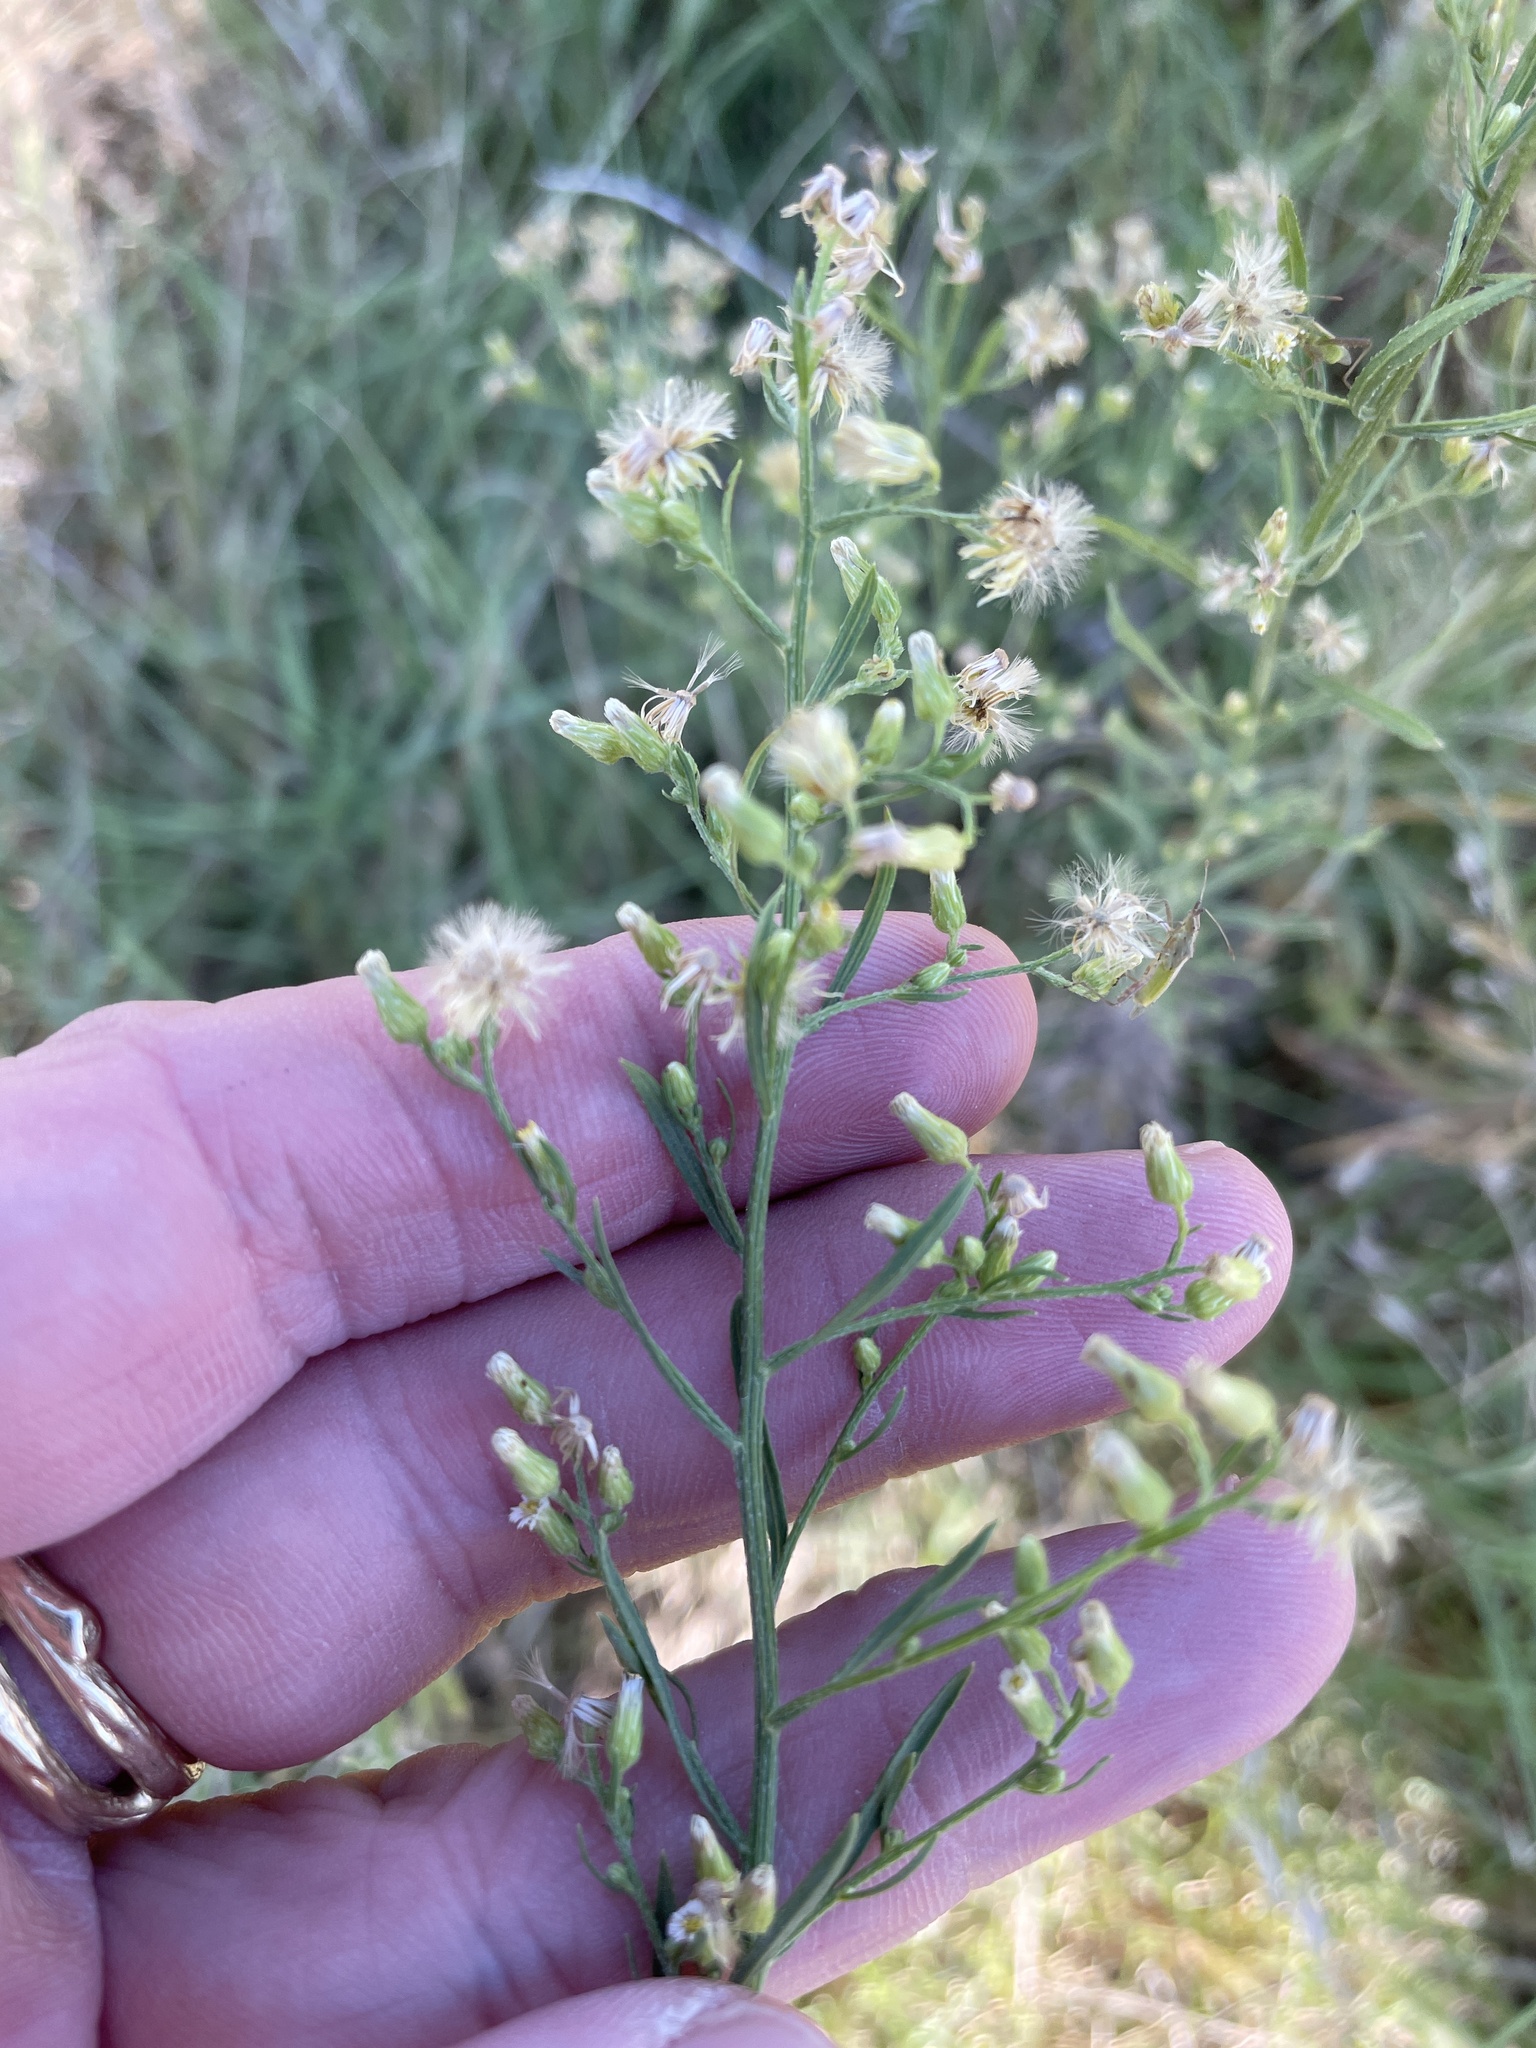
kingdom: Plantae
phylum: Tracheophyta
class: Magnoliopsida
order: Asterales
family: Asteraceae
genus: Erigeron
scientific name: Erigeron canadensis
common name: Canadian fleabane
